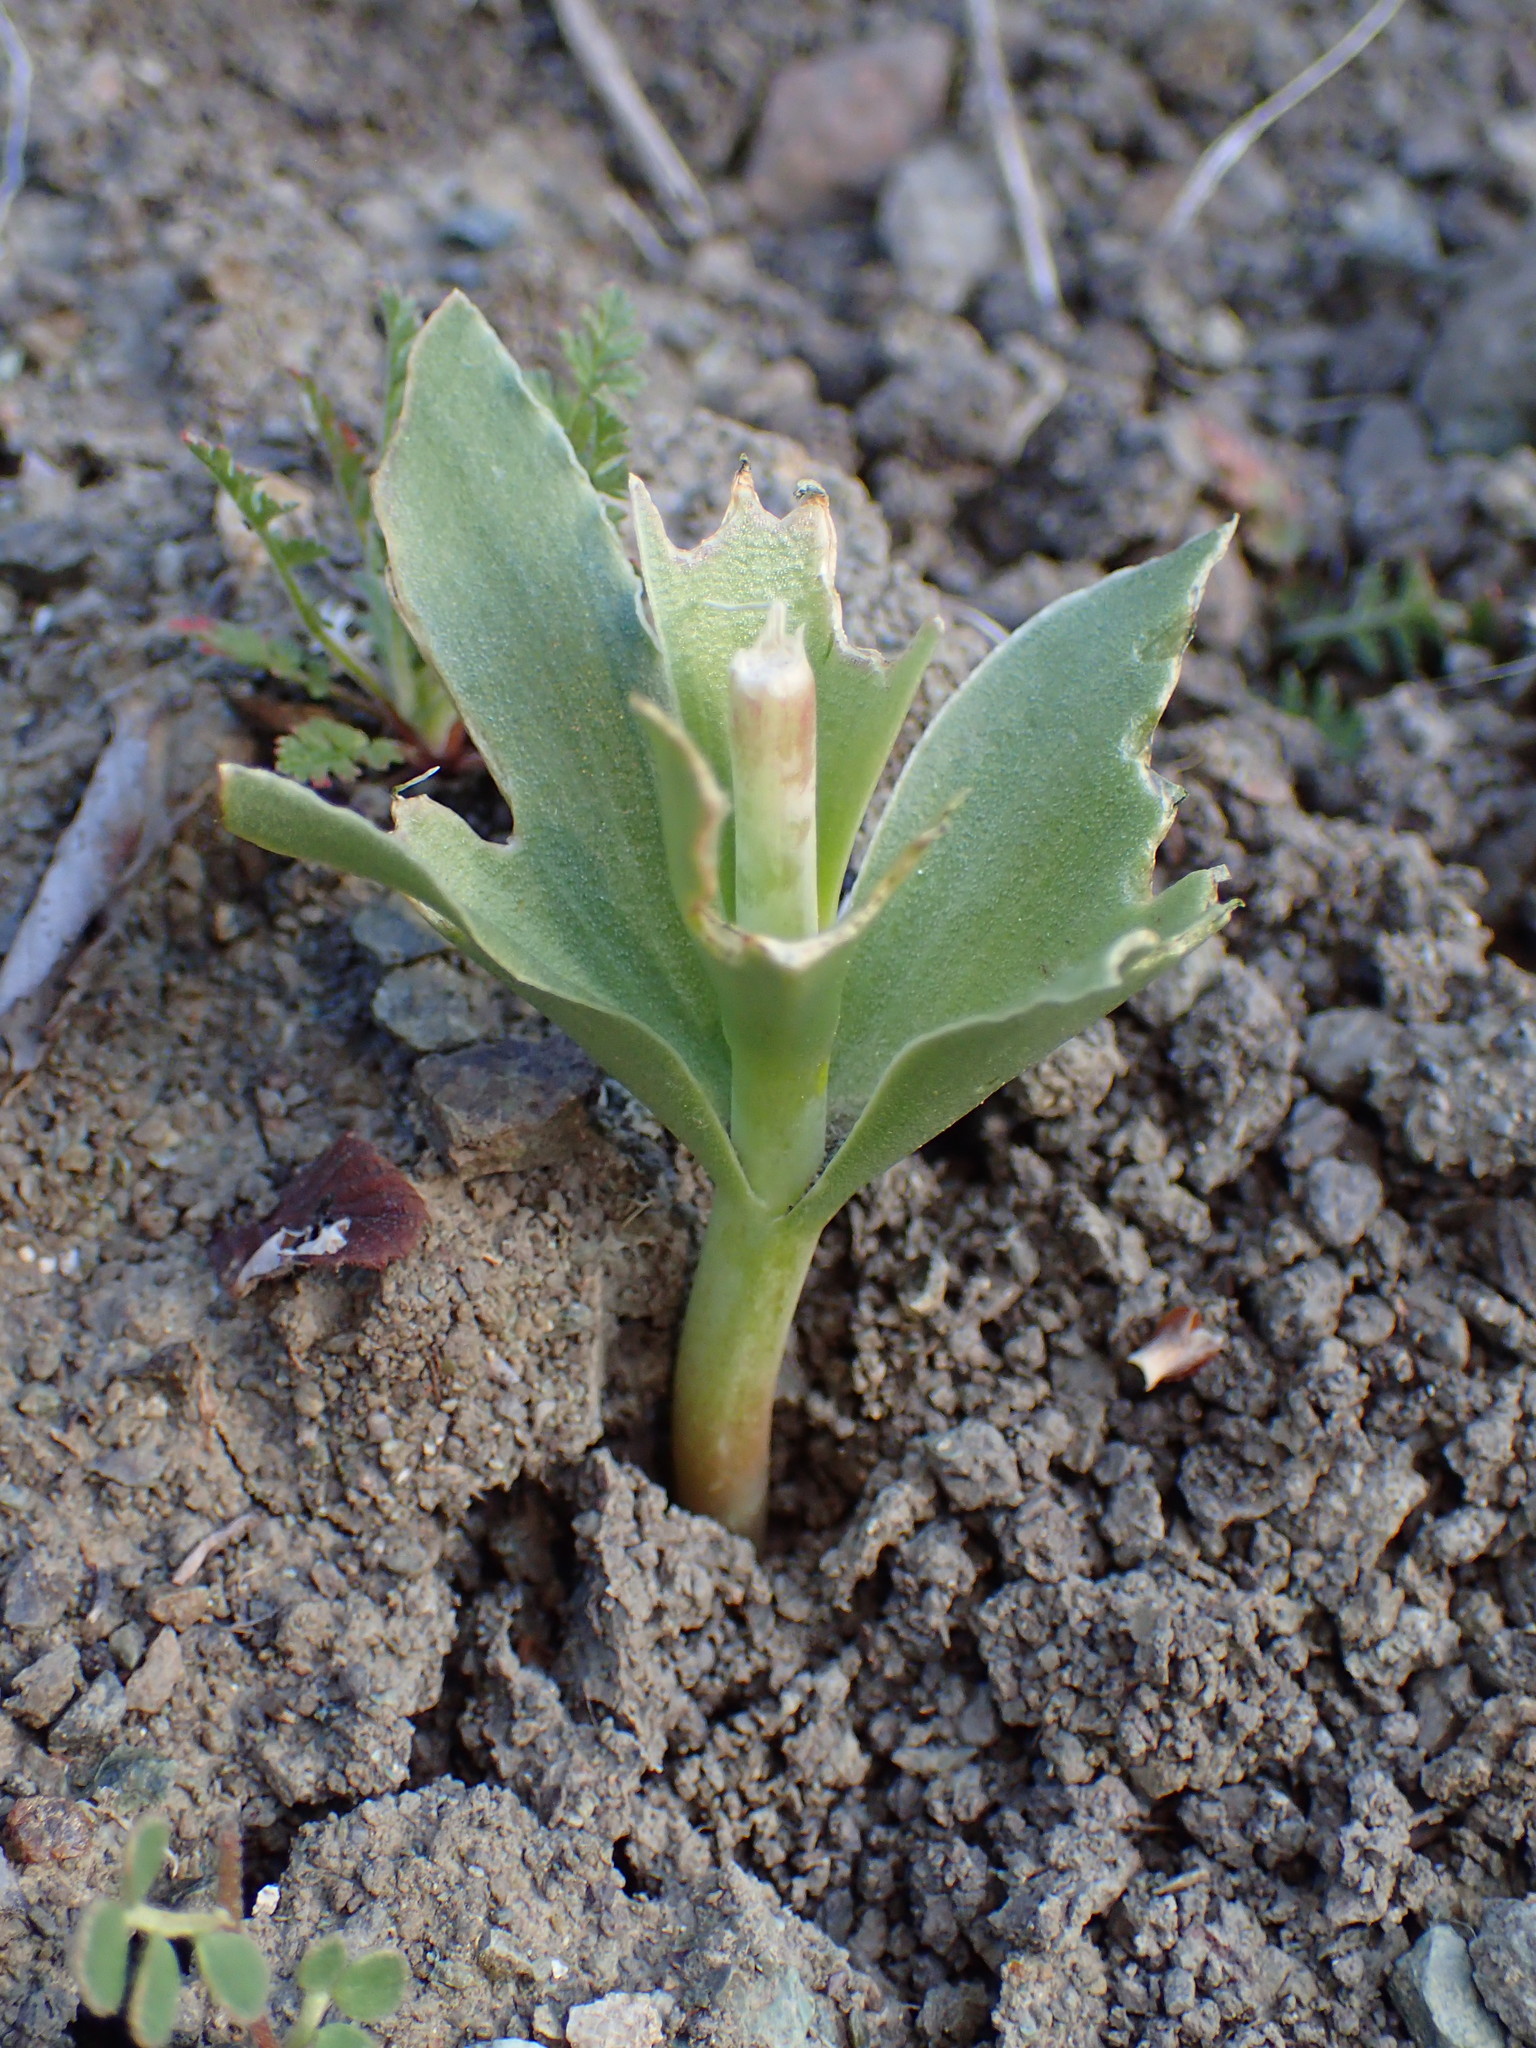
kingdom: Plantae
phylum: Tracheophyta
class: Liliopsida
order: Liliales
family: Liliaceae
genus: Fritillaria
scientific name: Fritillaria biflora
